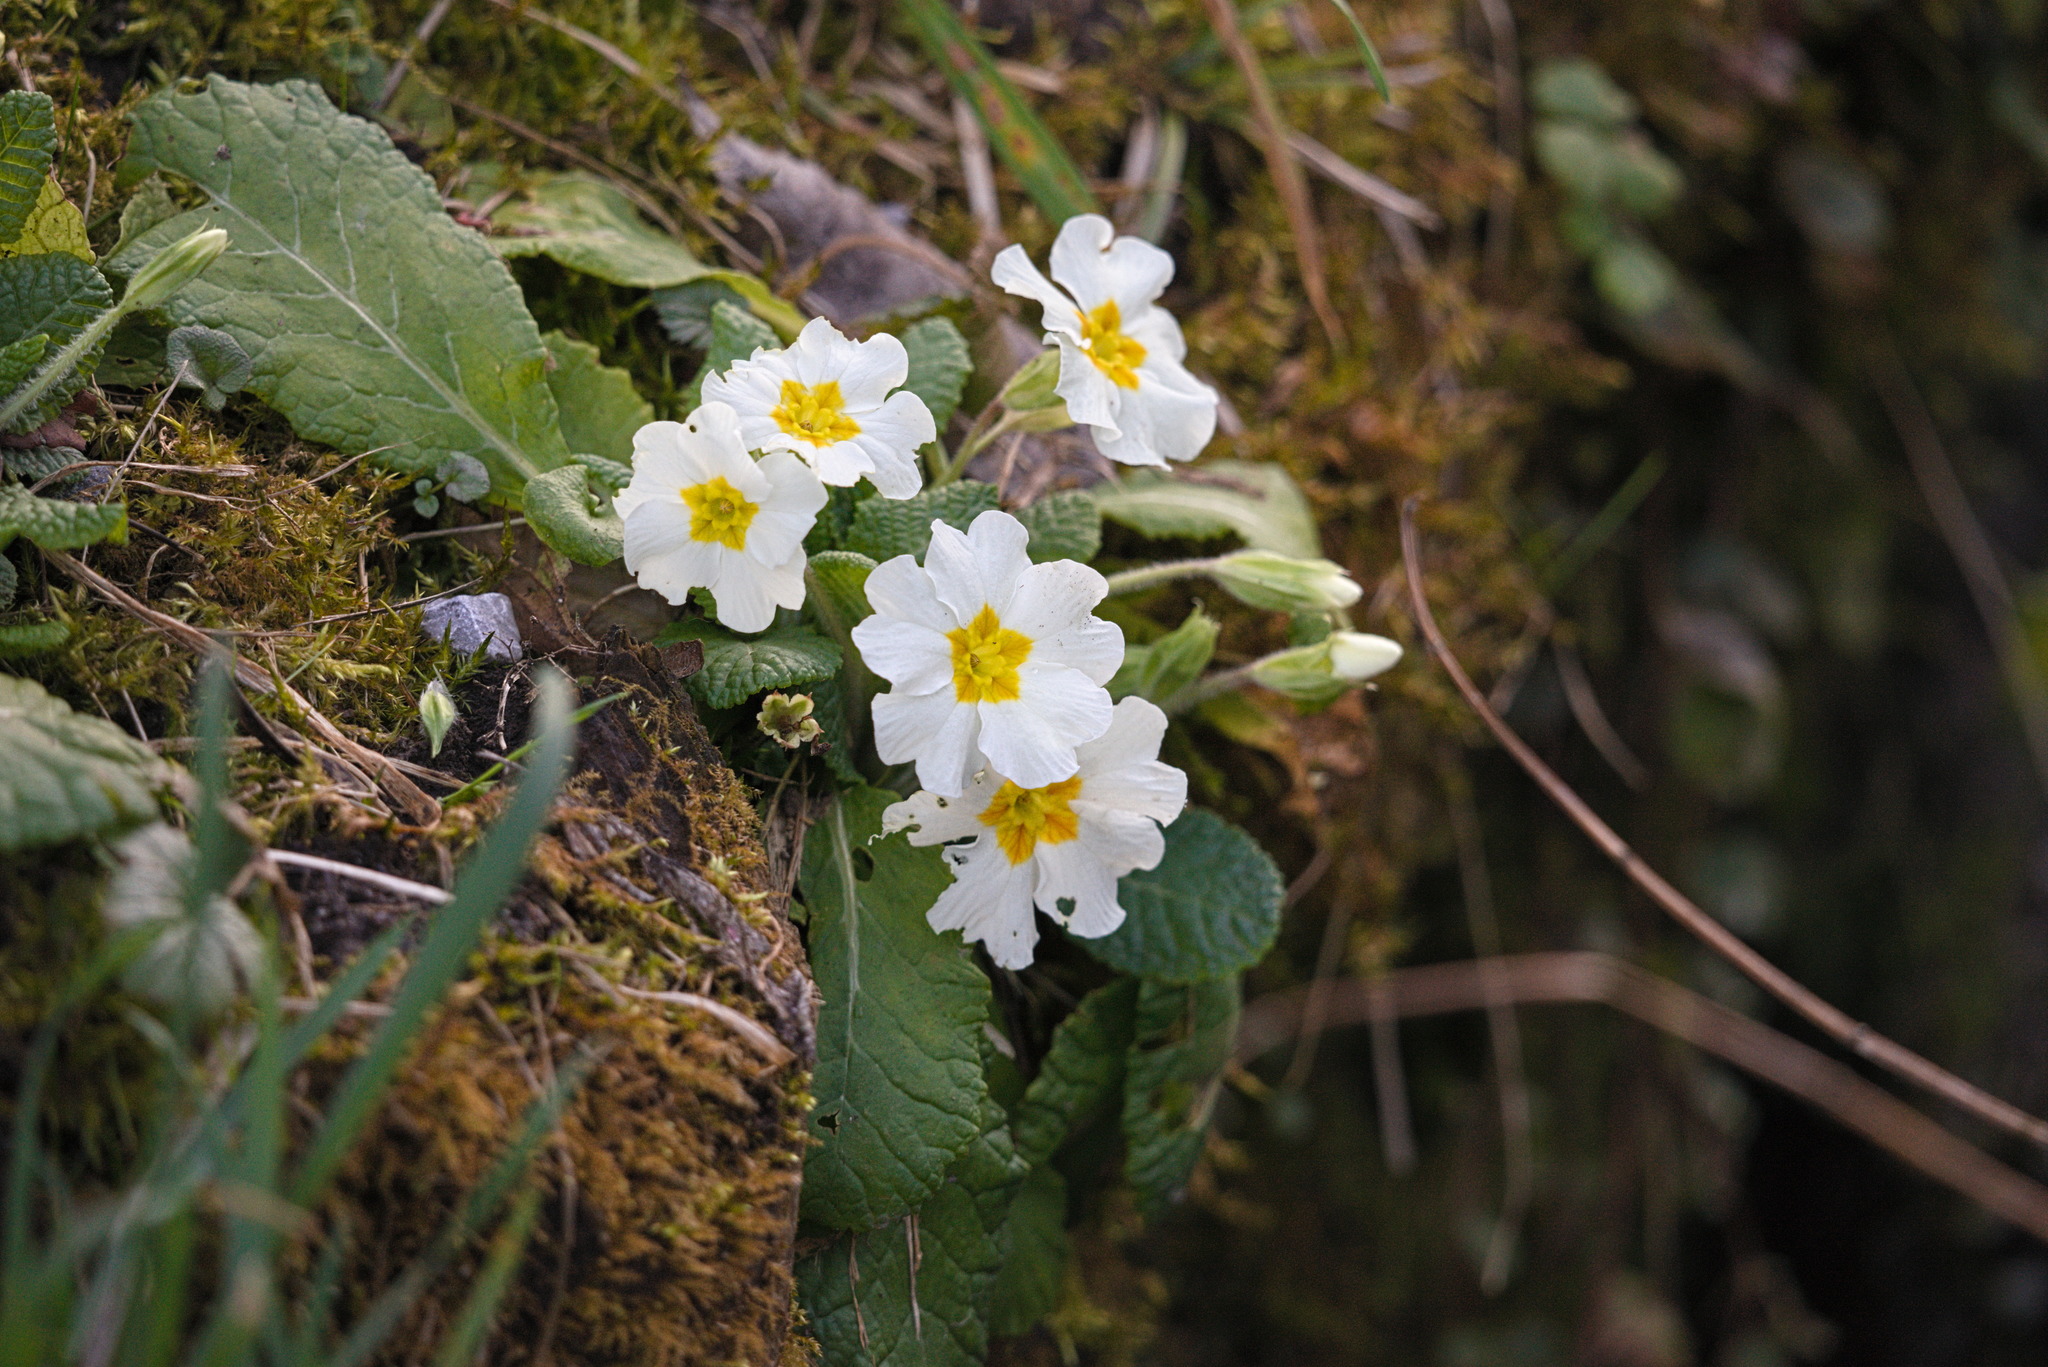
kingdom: Plantae
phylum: Tracheophyta
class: Magnoliopsida
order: Ericales
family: Primulaceae
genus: Primula
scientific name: Primula vulgaris
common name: Primrose
